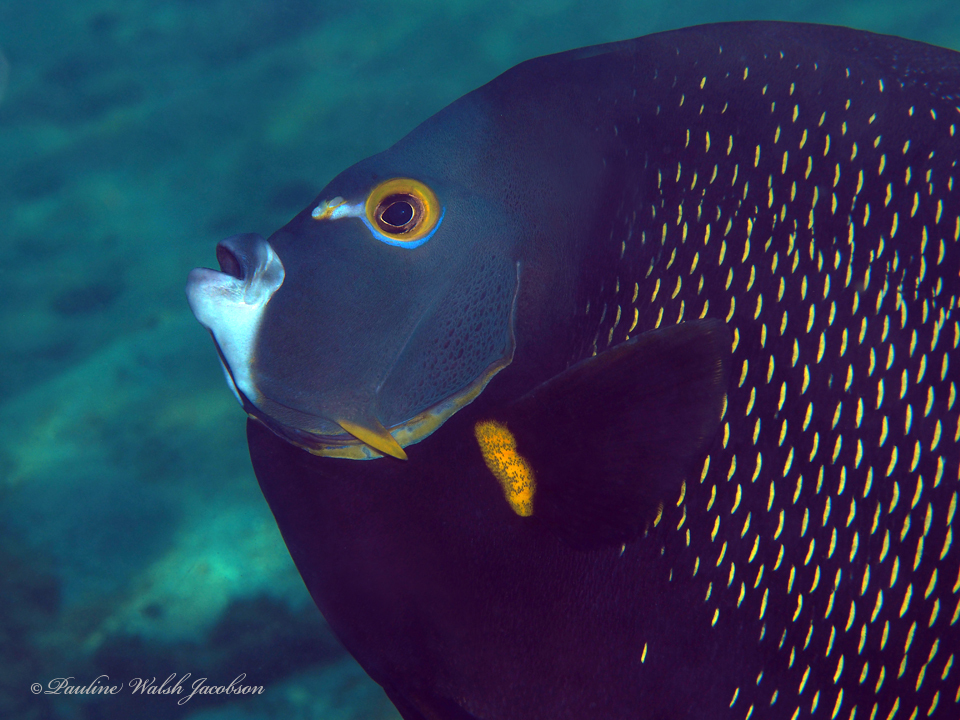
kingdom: Animalia
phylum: Chordata
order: Perciformes
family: Pomacanthidae
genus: Pomacanthus
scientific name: Pomacanthus paru
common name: French angelfish
